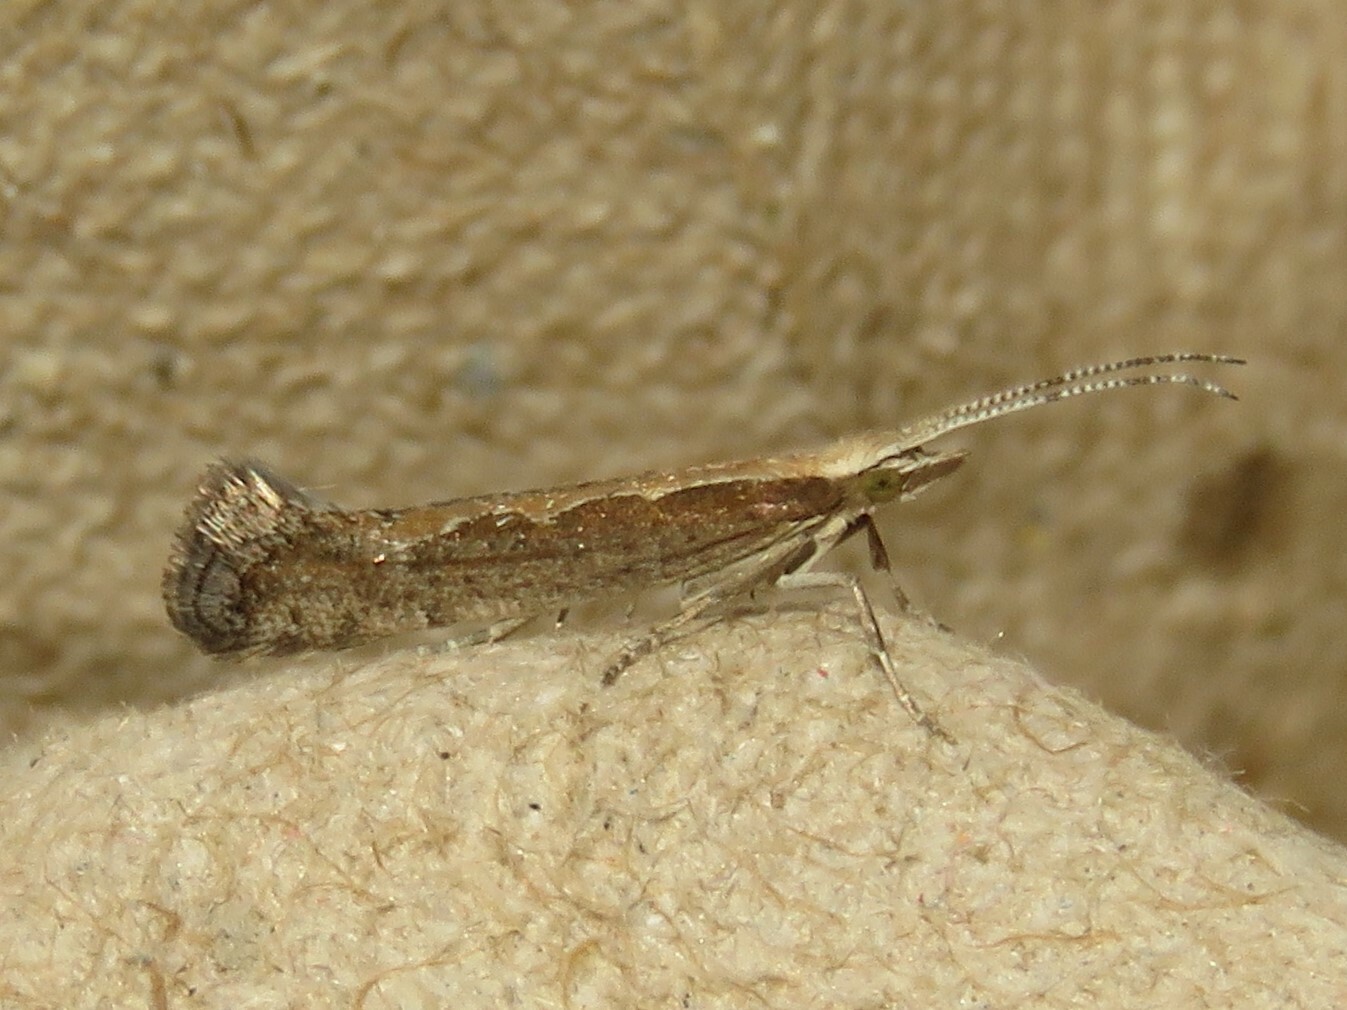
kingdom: Animalia
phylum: Arthropoda
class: Insecta
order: Lepidoptera
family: Plutellidae
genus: Plutella
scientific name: Plutella xylostella
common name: Diamond-back moth
